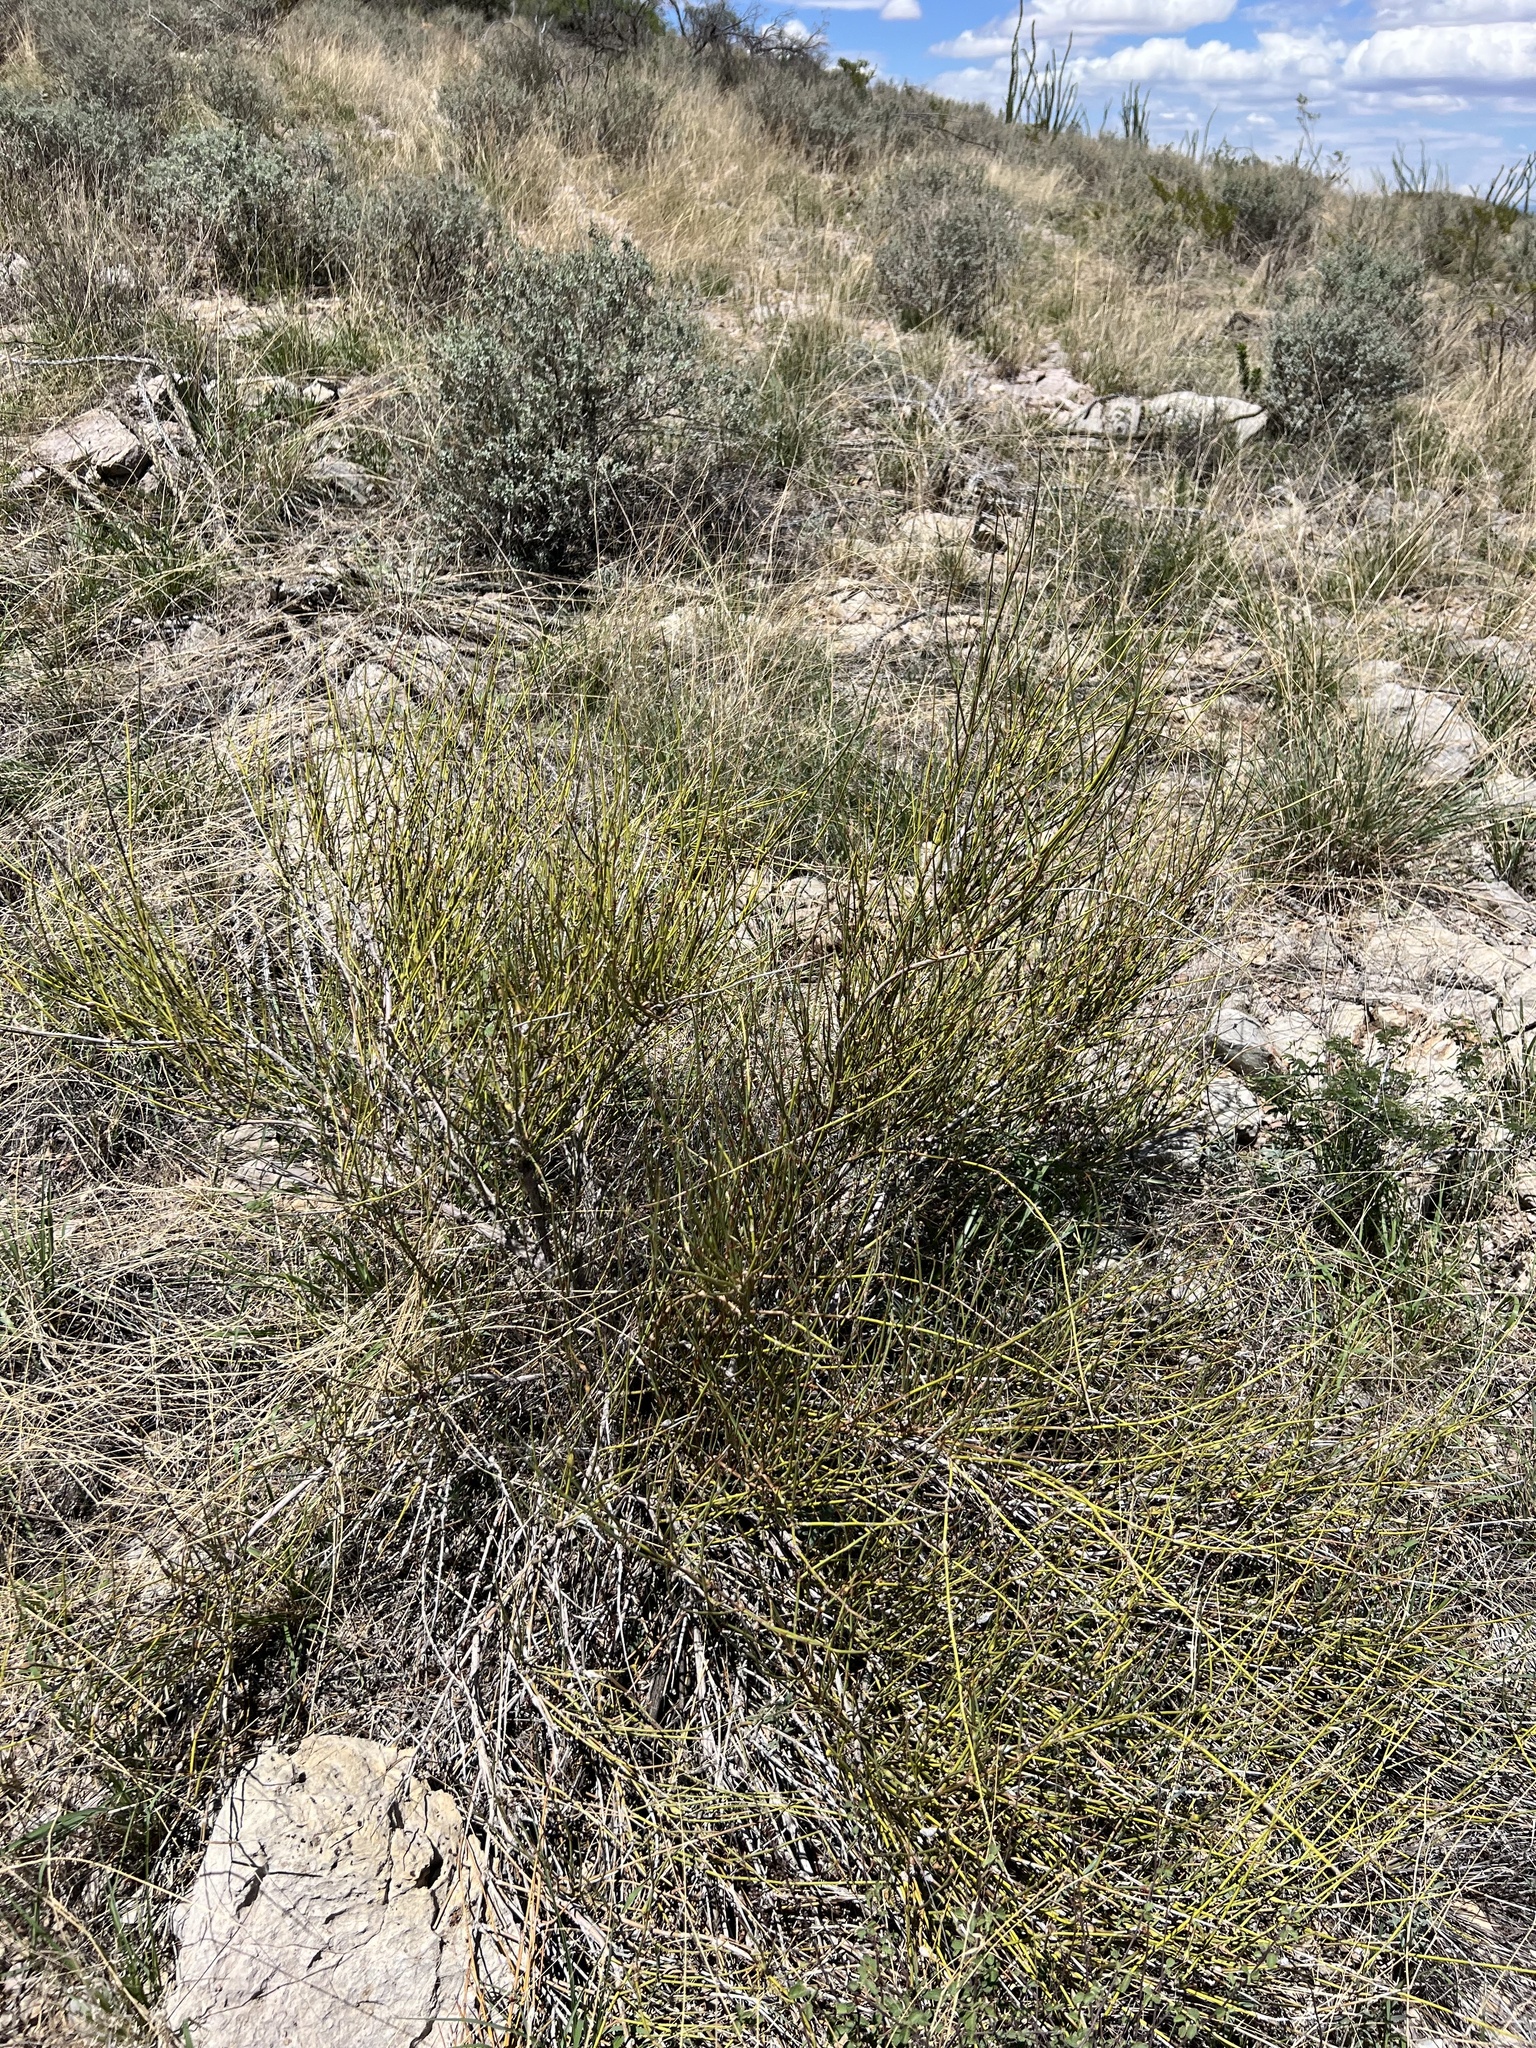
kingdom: Plantae
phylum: Tracheophyta
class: Gnetopsida
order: Ephedrales
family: Ephedraceae
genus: Ephedra
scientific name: Ephedra trifurca
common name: Mexican-tea
